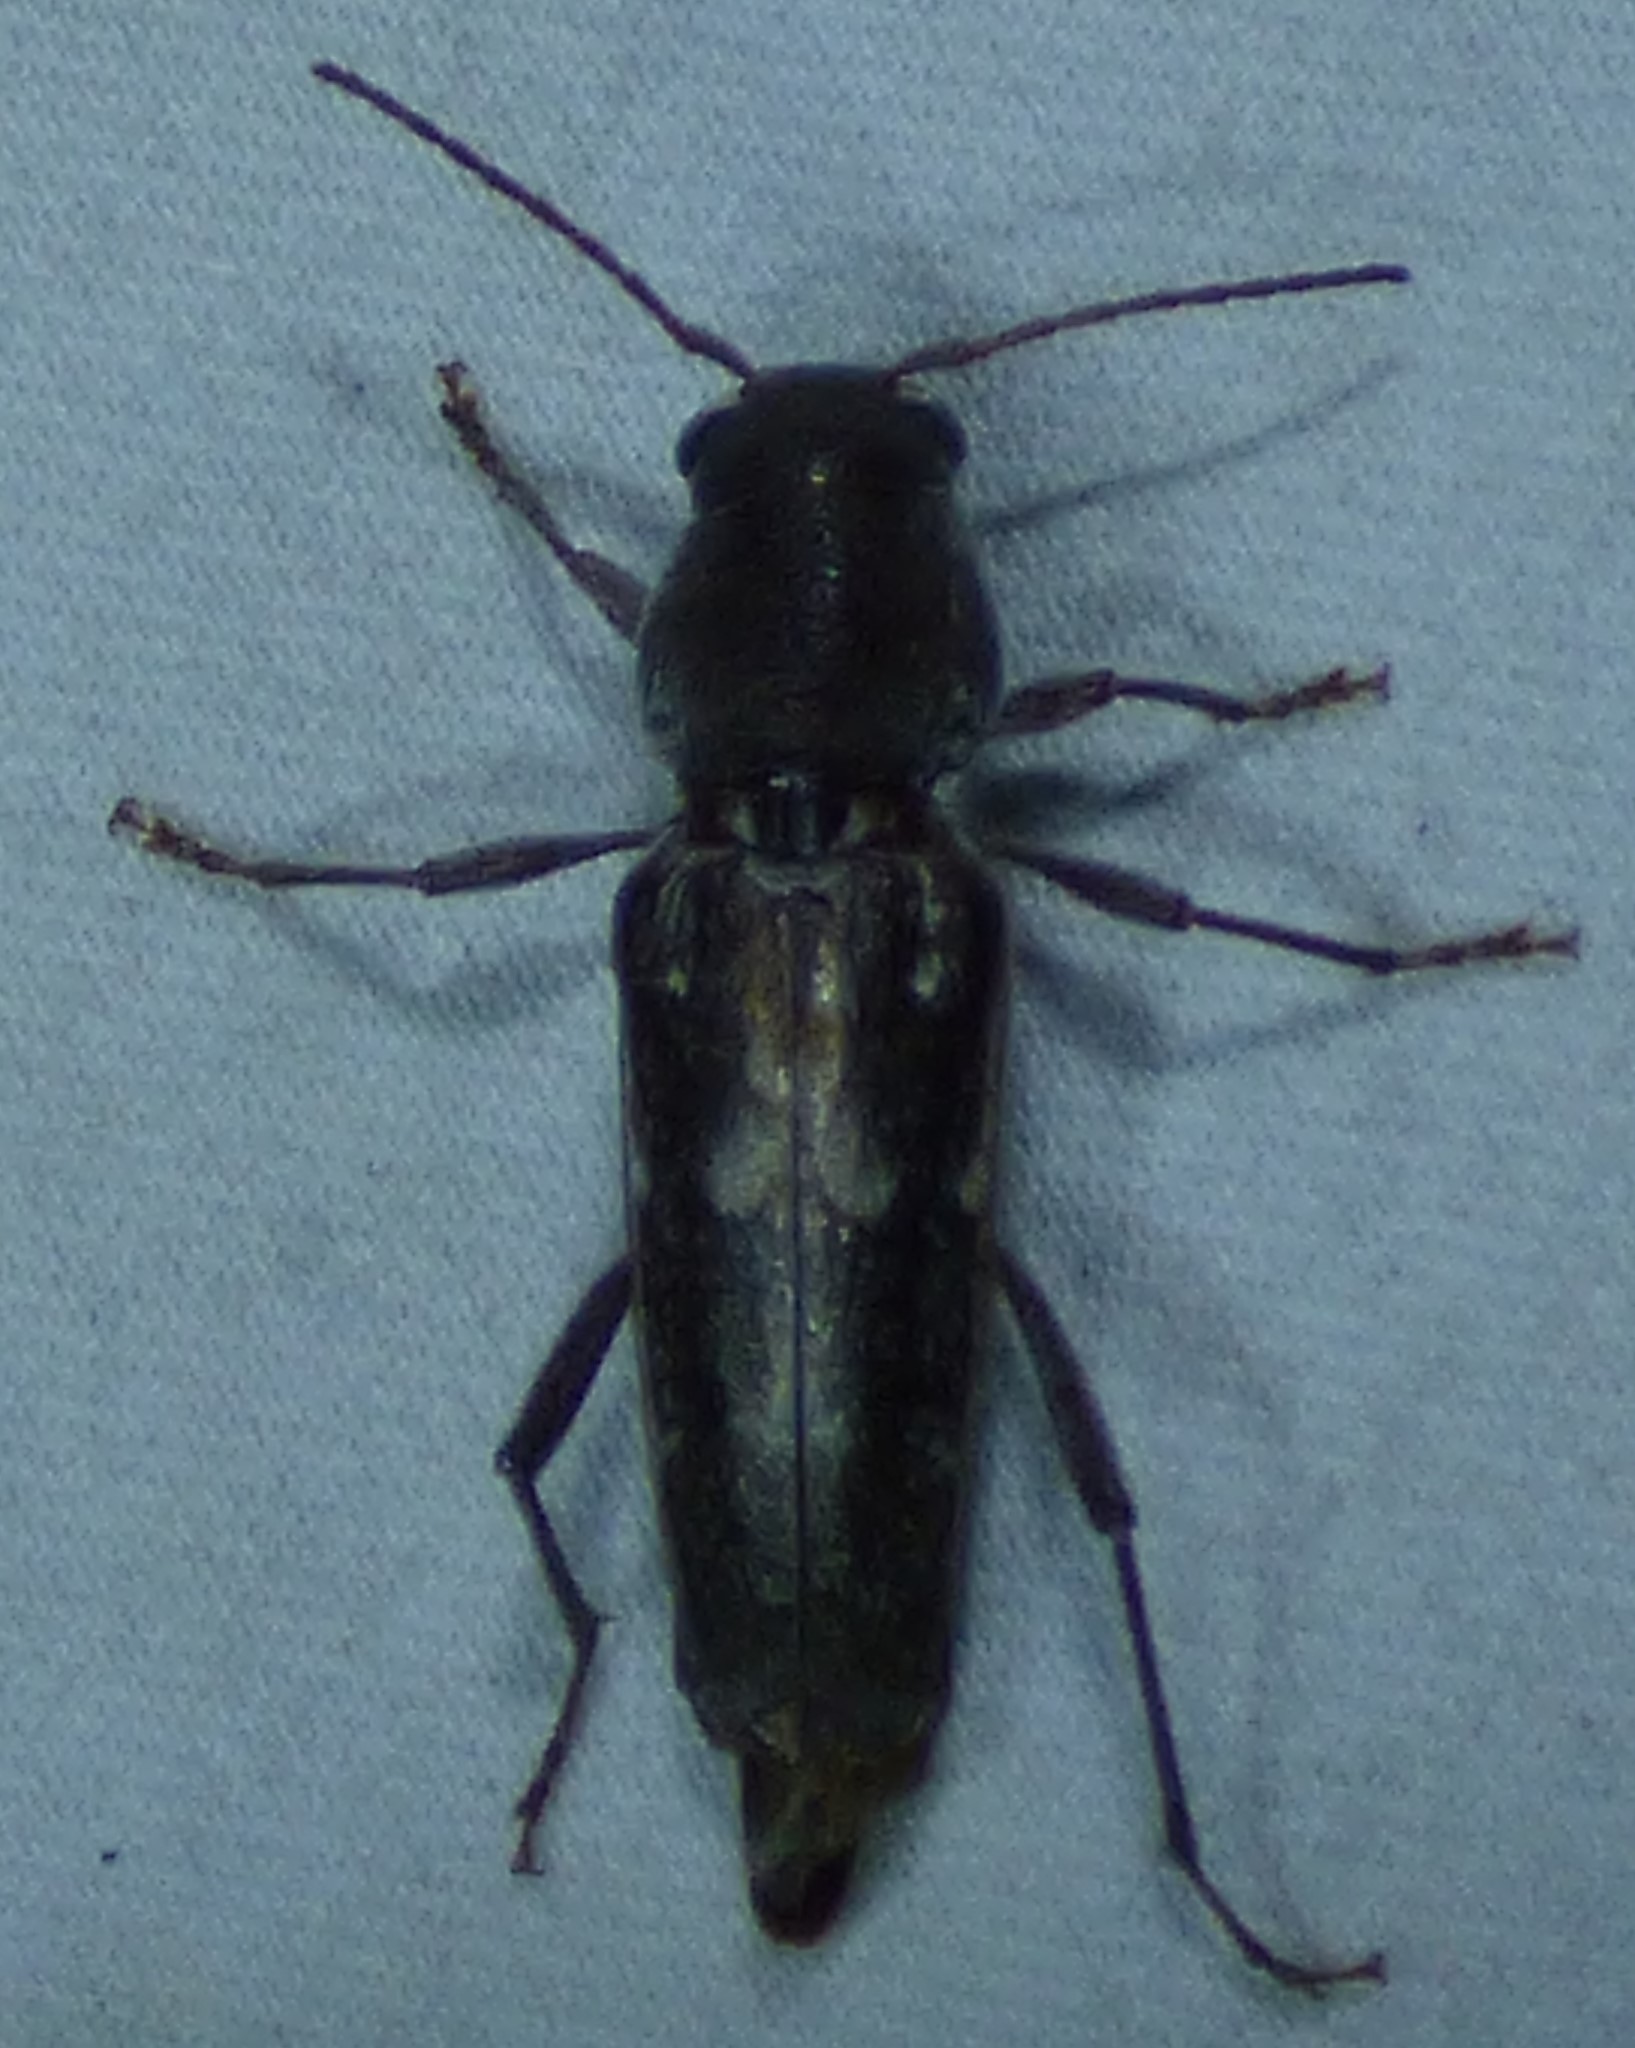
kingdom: Animalia
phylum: Arthropoda
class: Insecta
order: Coleoptera
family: Cerambycidae
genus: Xylotrechus
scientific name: Xylotrechus sagittatus
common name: Arrowhead borer
